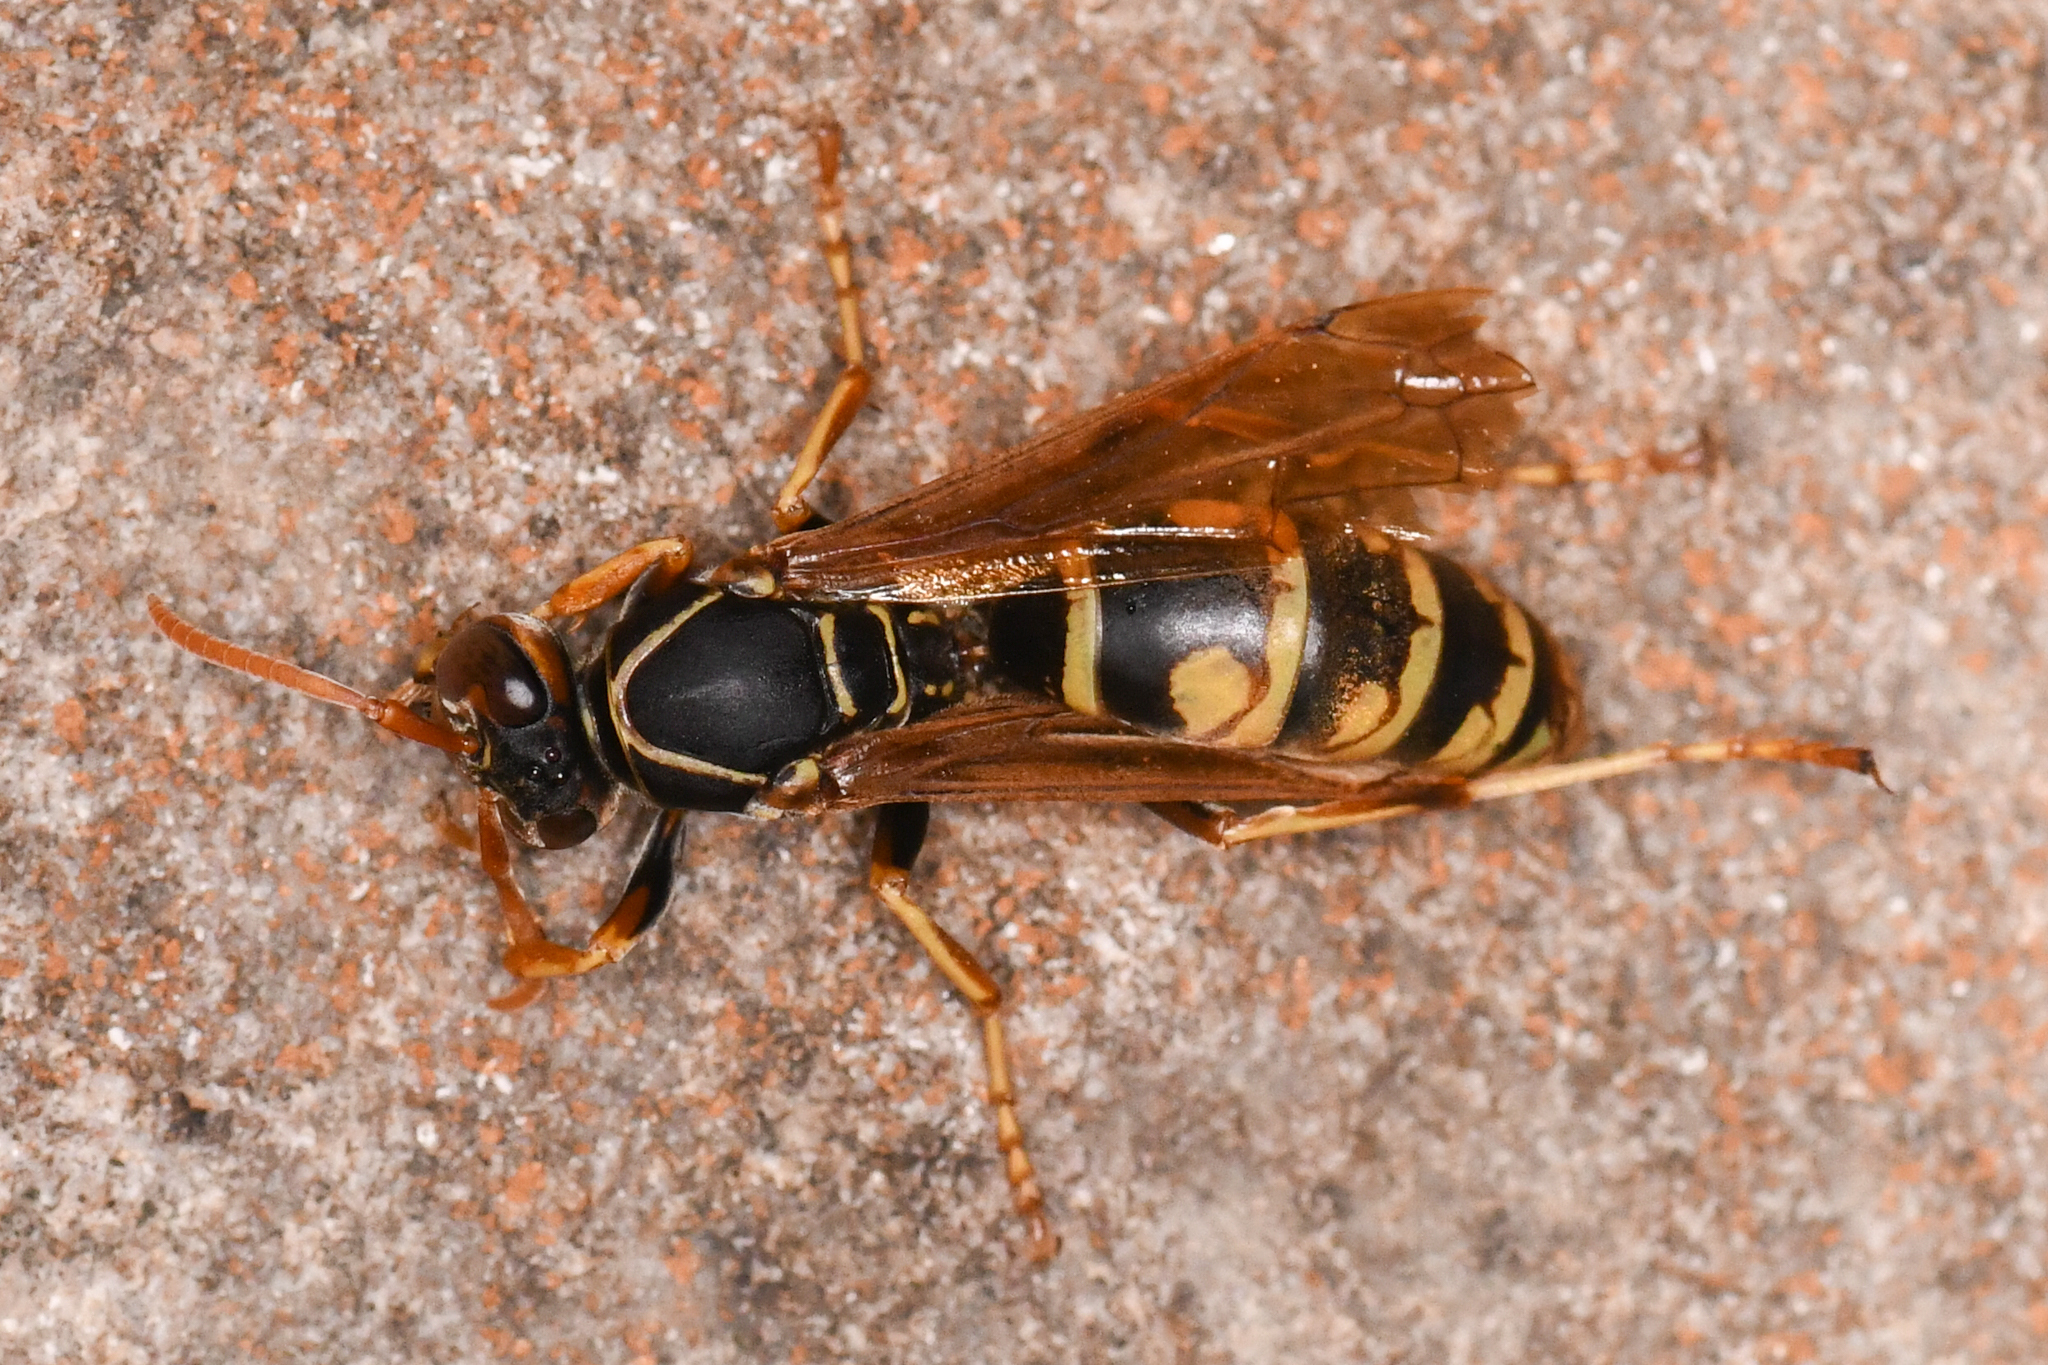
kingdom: Animalia
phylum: Arthropoda
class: Insecta
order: Hymenoptera
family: Eumenidae
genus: Polistes
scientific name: Polistes aurifer
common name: Paper wasp
